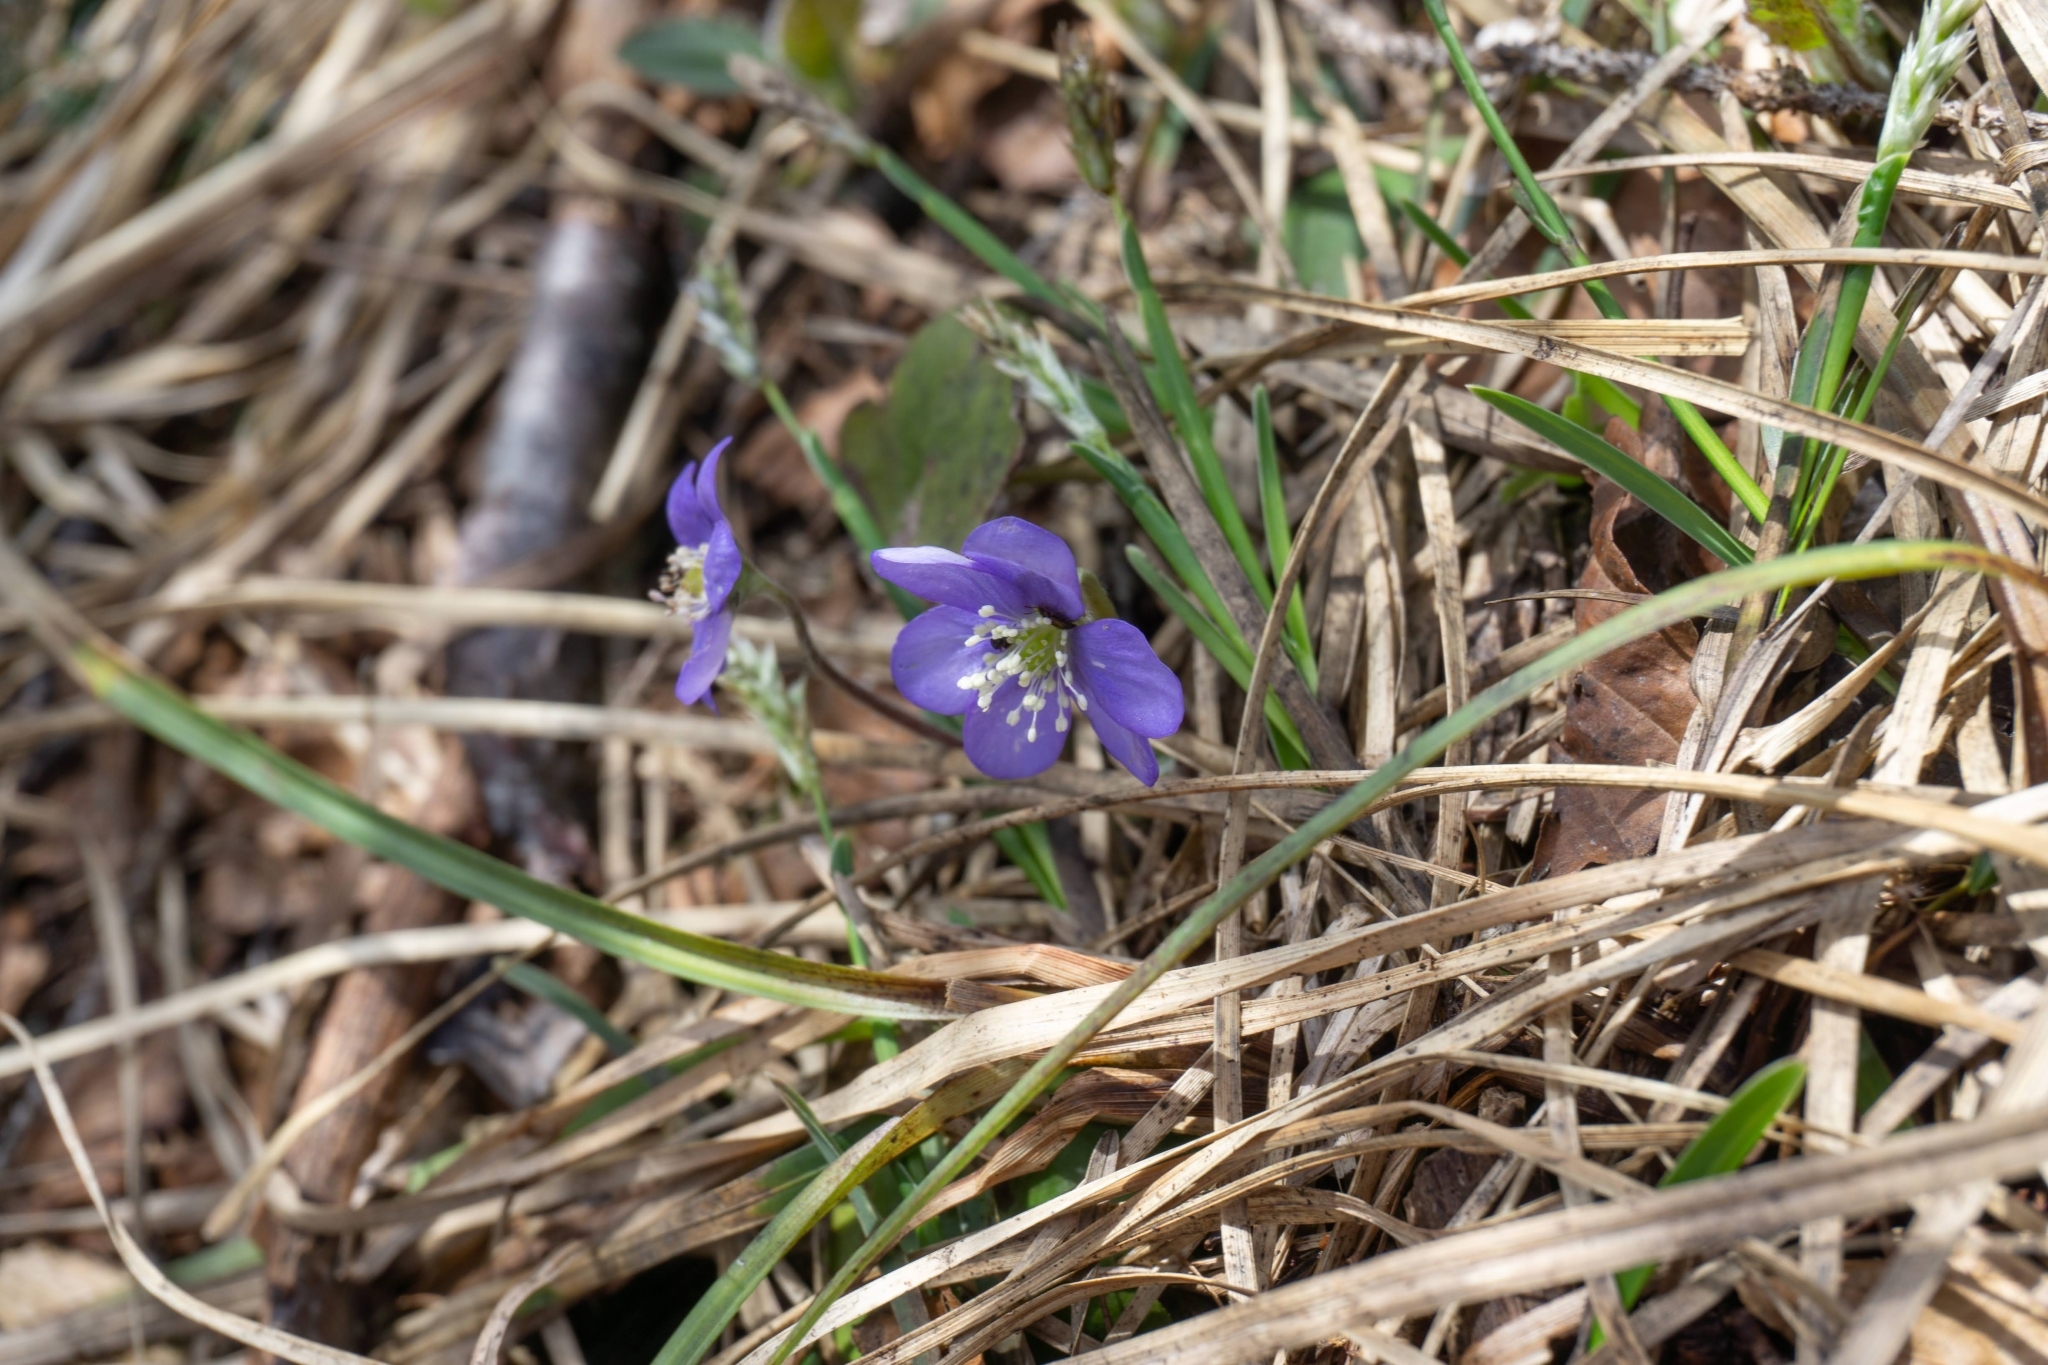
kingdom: Plantae
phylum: Tracheophyta
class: Magnoliopsida
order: Ranunculales
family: Ranunculaceae
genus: Hepatica
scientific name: Hepatica nobilis
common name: Liverleaf
